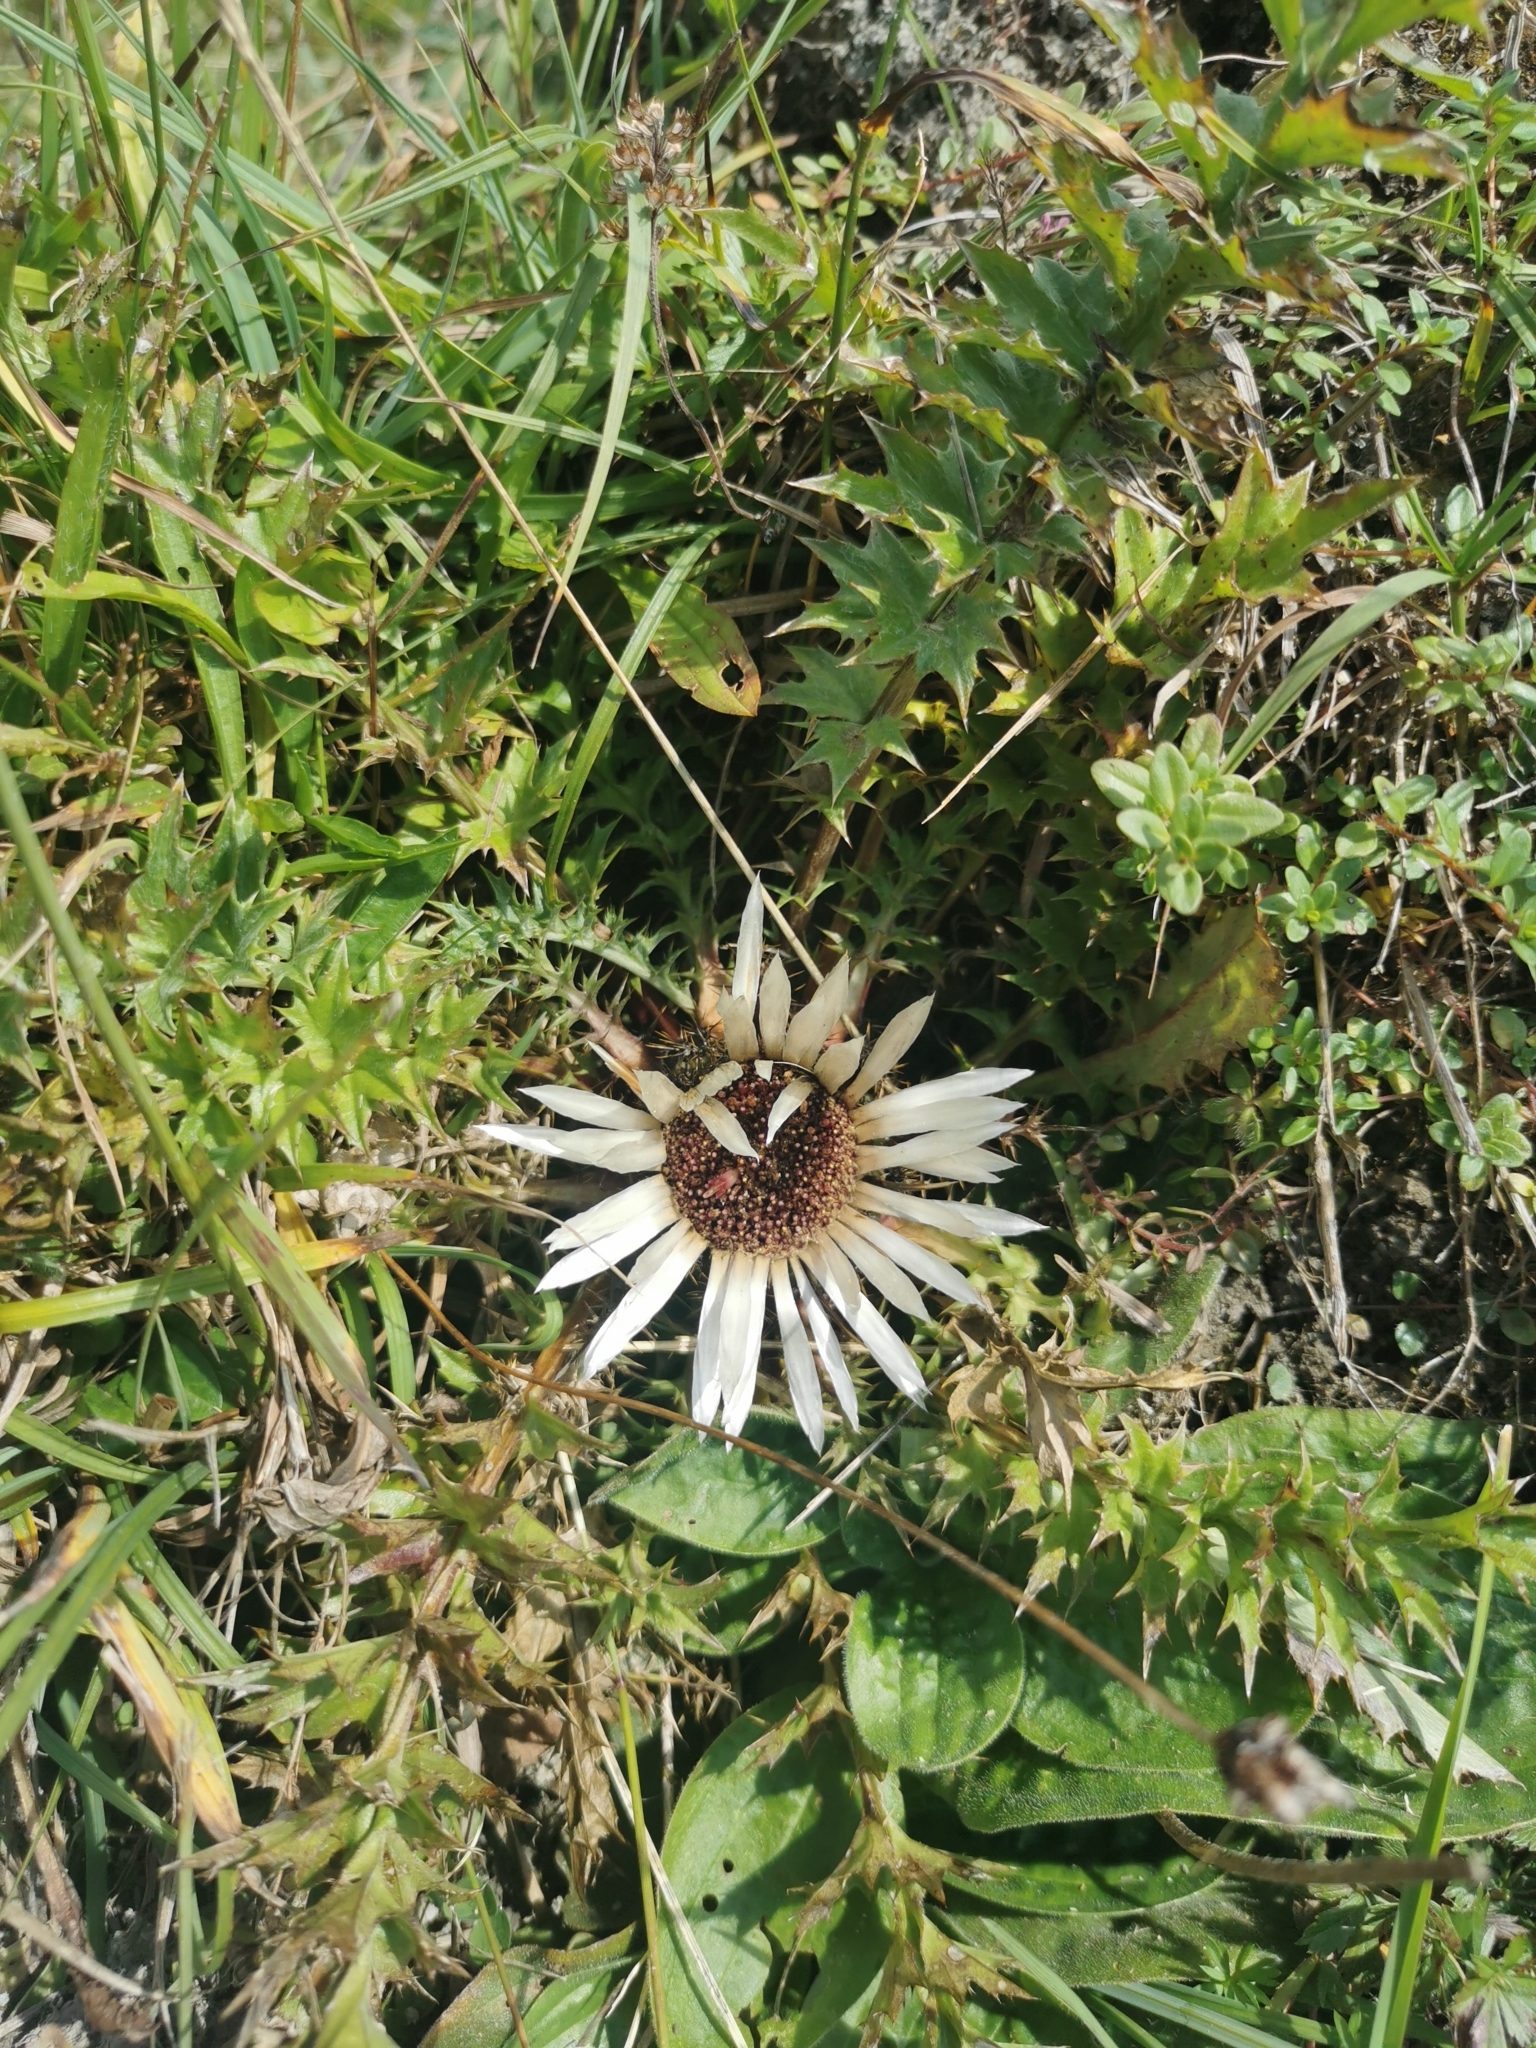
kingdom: Plantae
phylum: Tracheophyta
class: Magnoliopsida
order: Asterales
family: Asteraceae
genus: Carlina
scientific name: Carlina acaulis
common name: Stemless carline thistle
